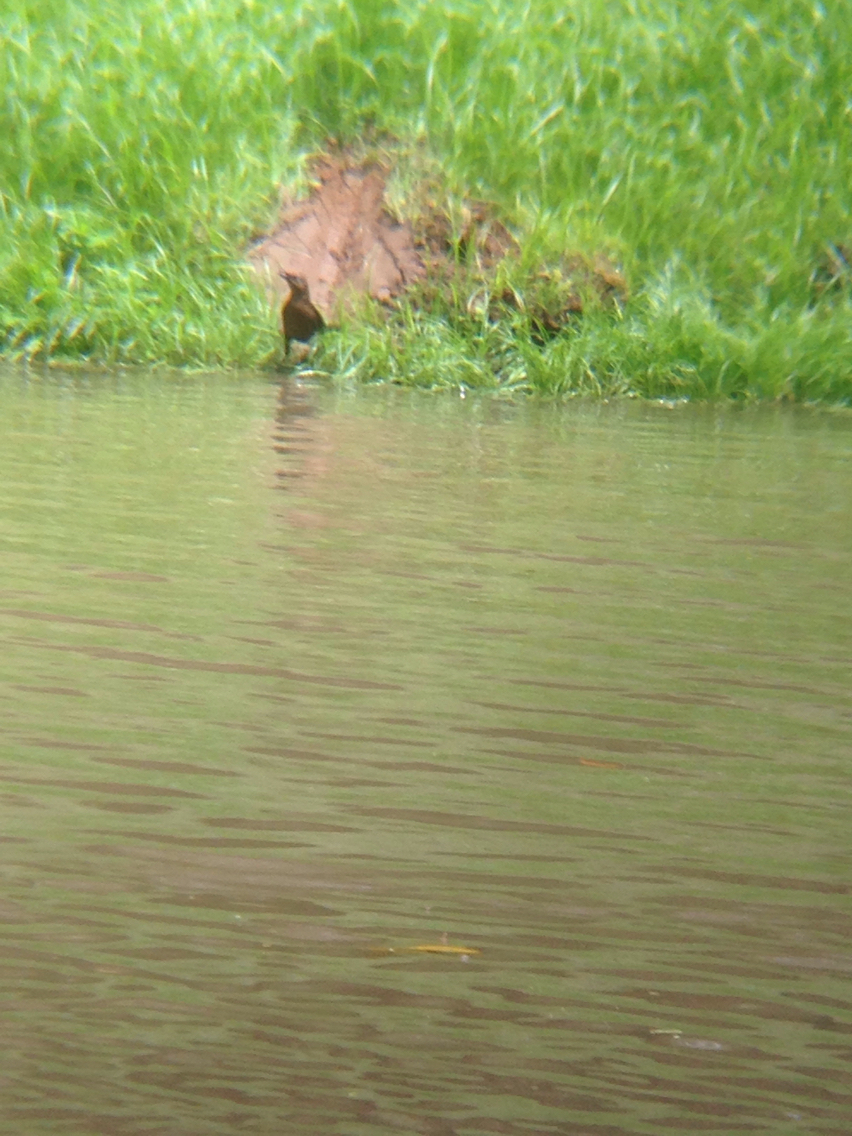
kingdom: Animalia
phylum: Chordata
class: Aves
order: Passeriformes
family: Icteridae
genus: Quiscalus
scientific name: Quiscalus mexicanus
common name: Great-tailed grackle
